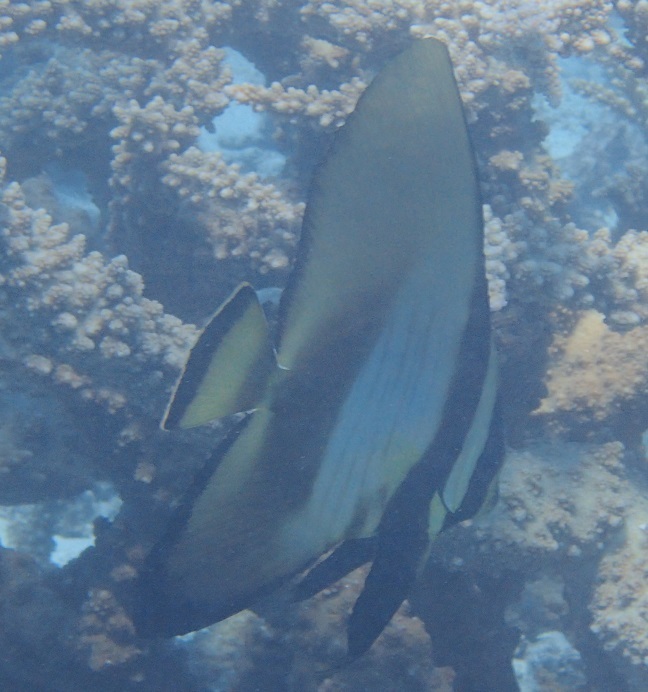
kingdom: Animalia
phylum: Chordata
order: Perciformes
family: Ephippidae
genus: Platax
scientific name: Platax pinnatus
